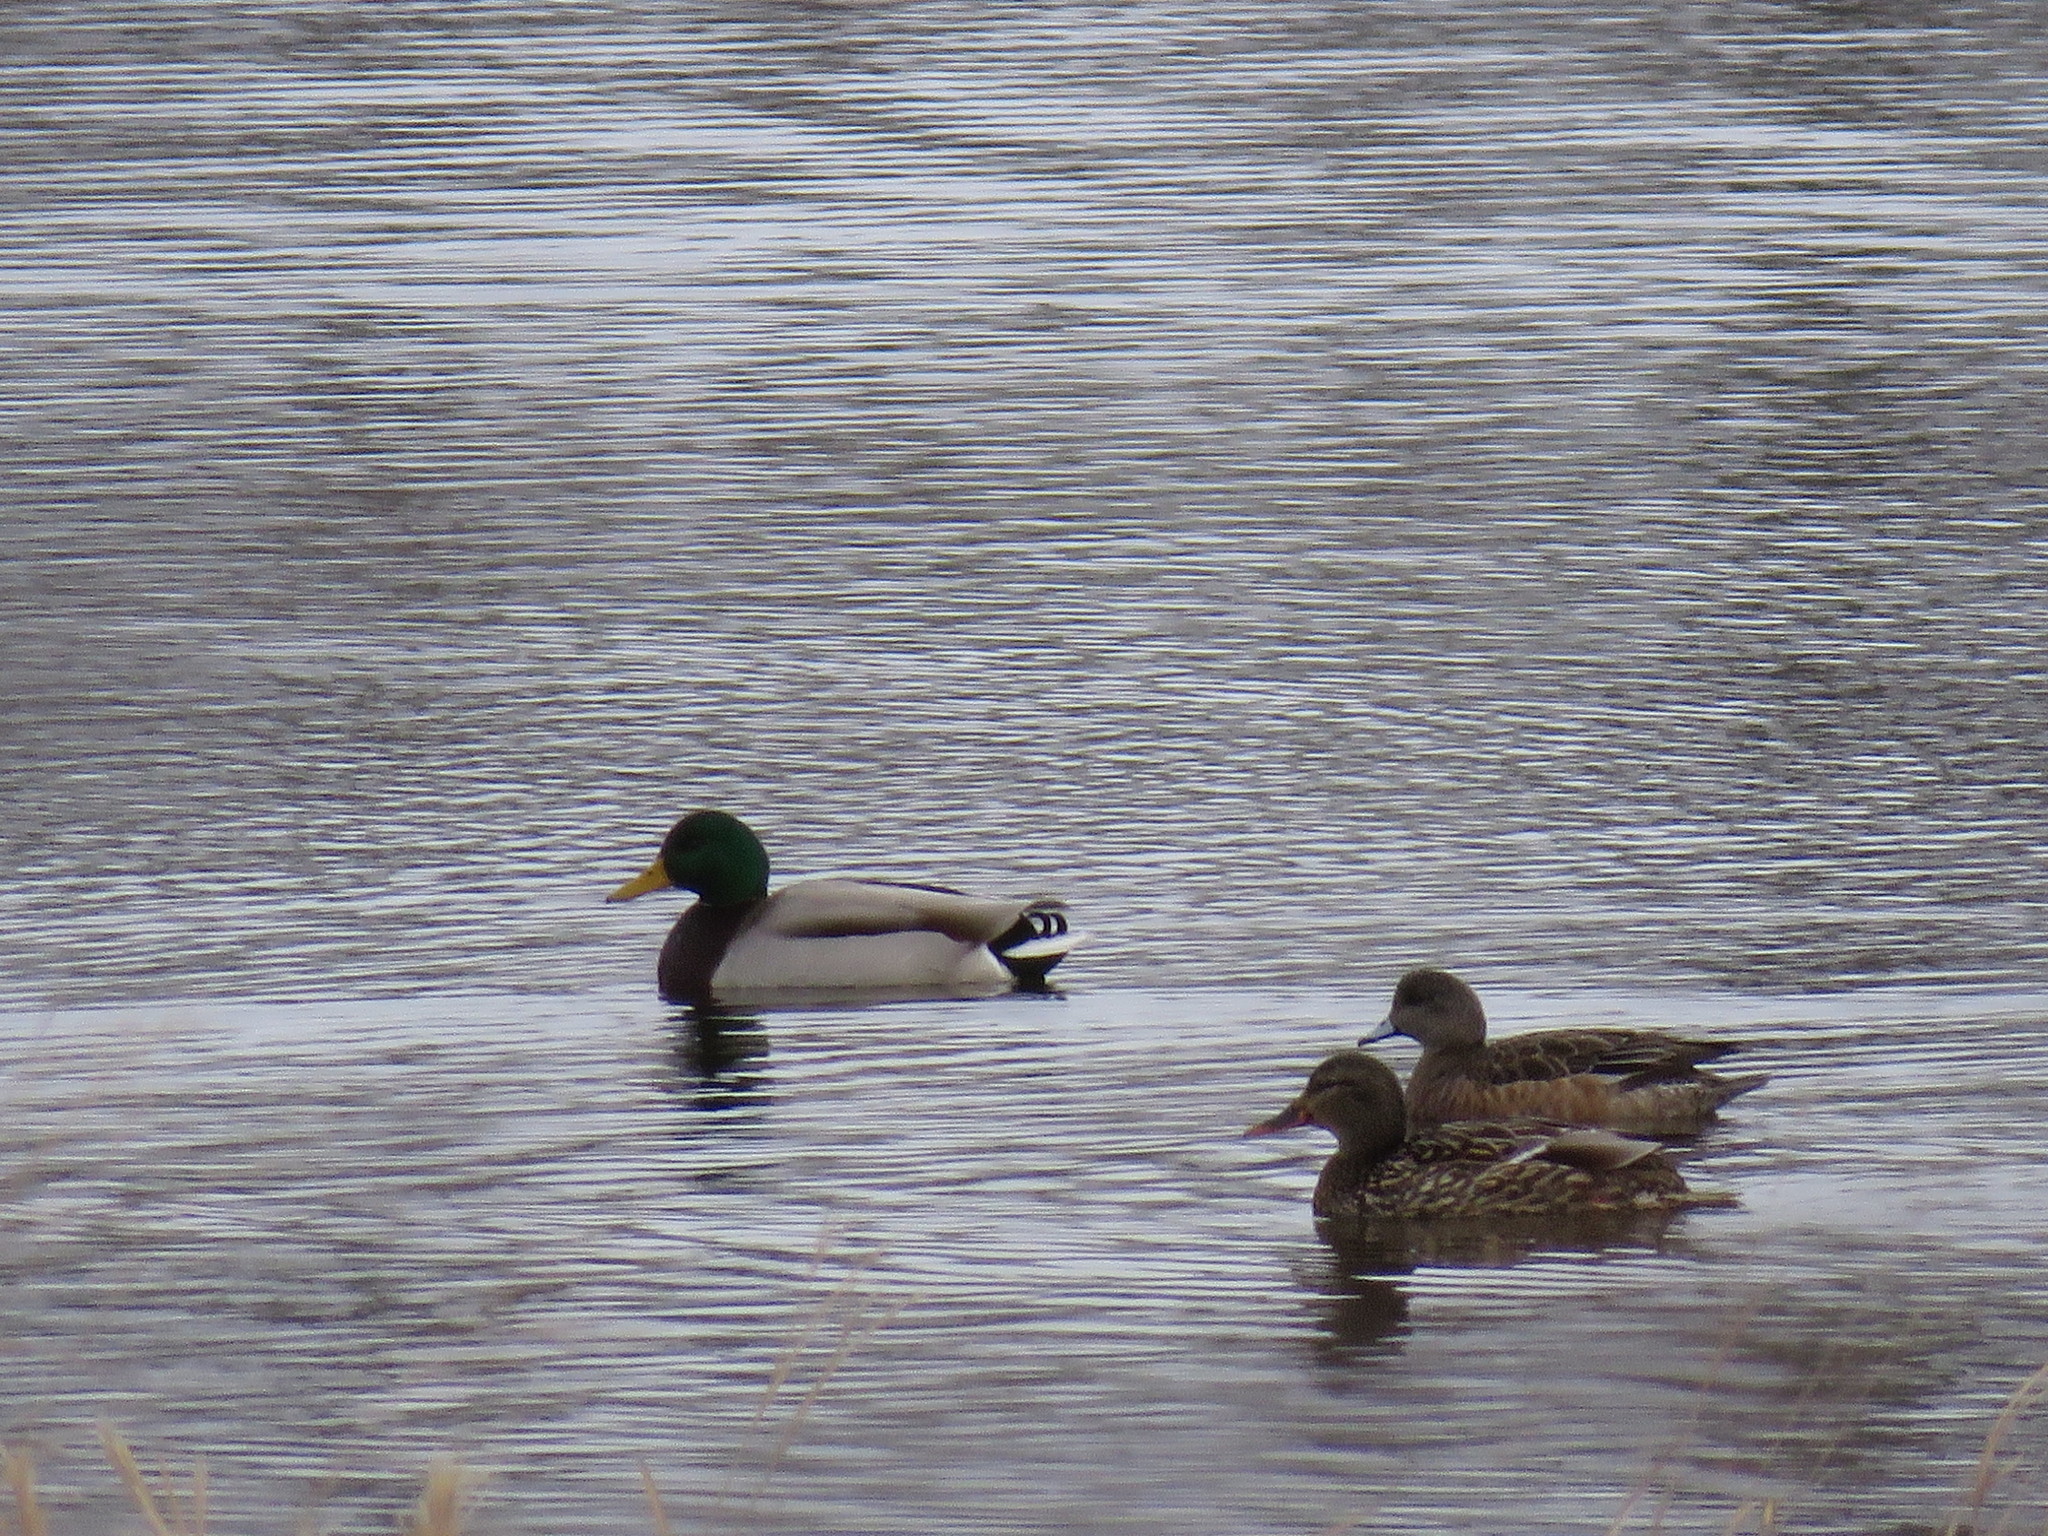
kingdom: Animalia
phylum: Chordata
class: Aves
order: Anseriformes
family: Anatidae
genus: Mareca
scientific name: Mareca americana
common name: American wigeon
